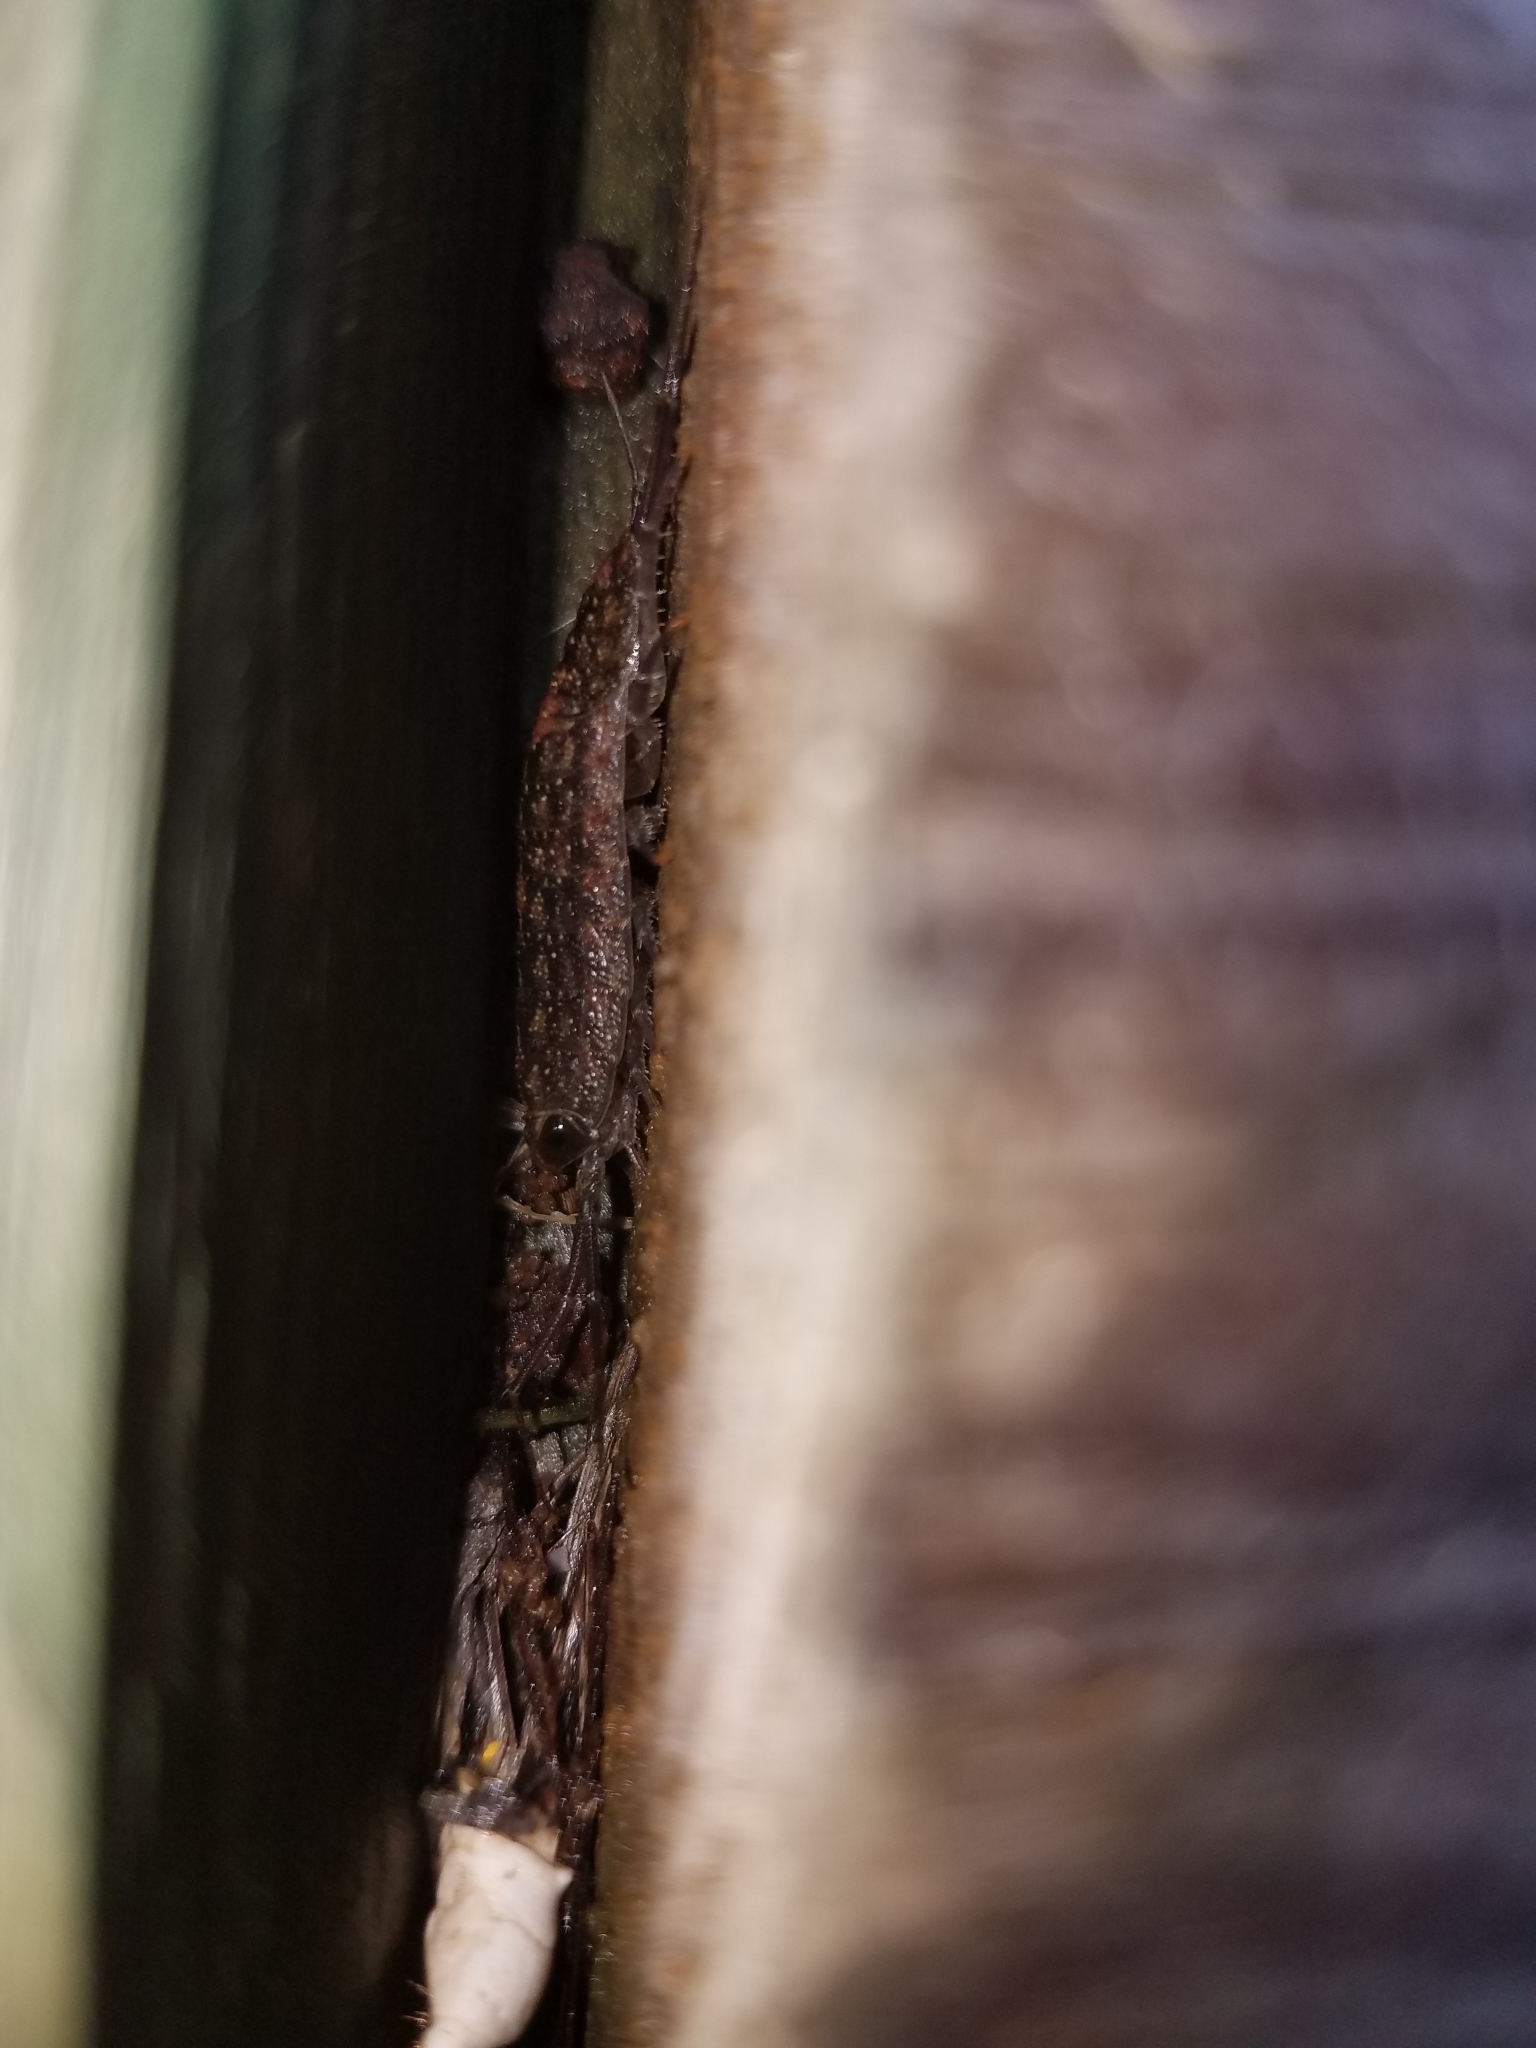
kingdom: Animalia
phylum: Arthropoda
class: Malacostraca
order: Isopoda
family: Ligiidae
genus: Ligia
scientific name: Ligia exotica
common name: Wharf roach
